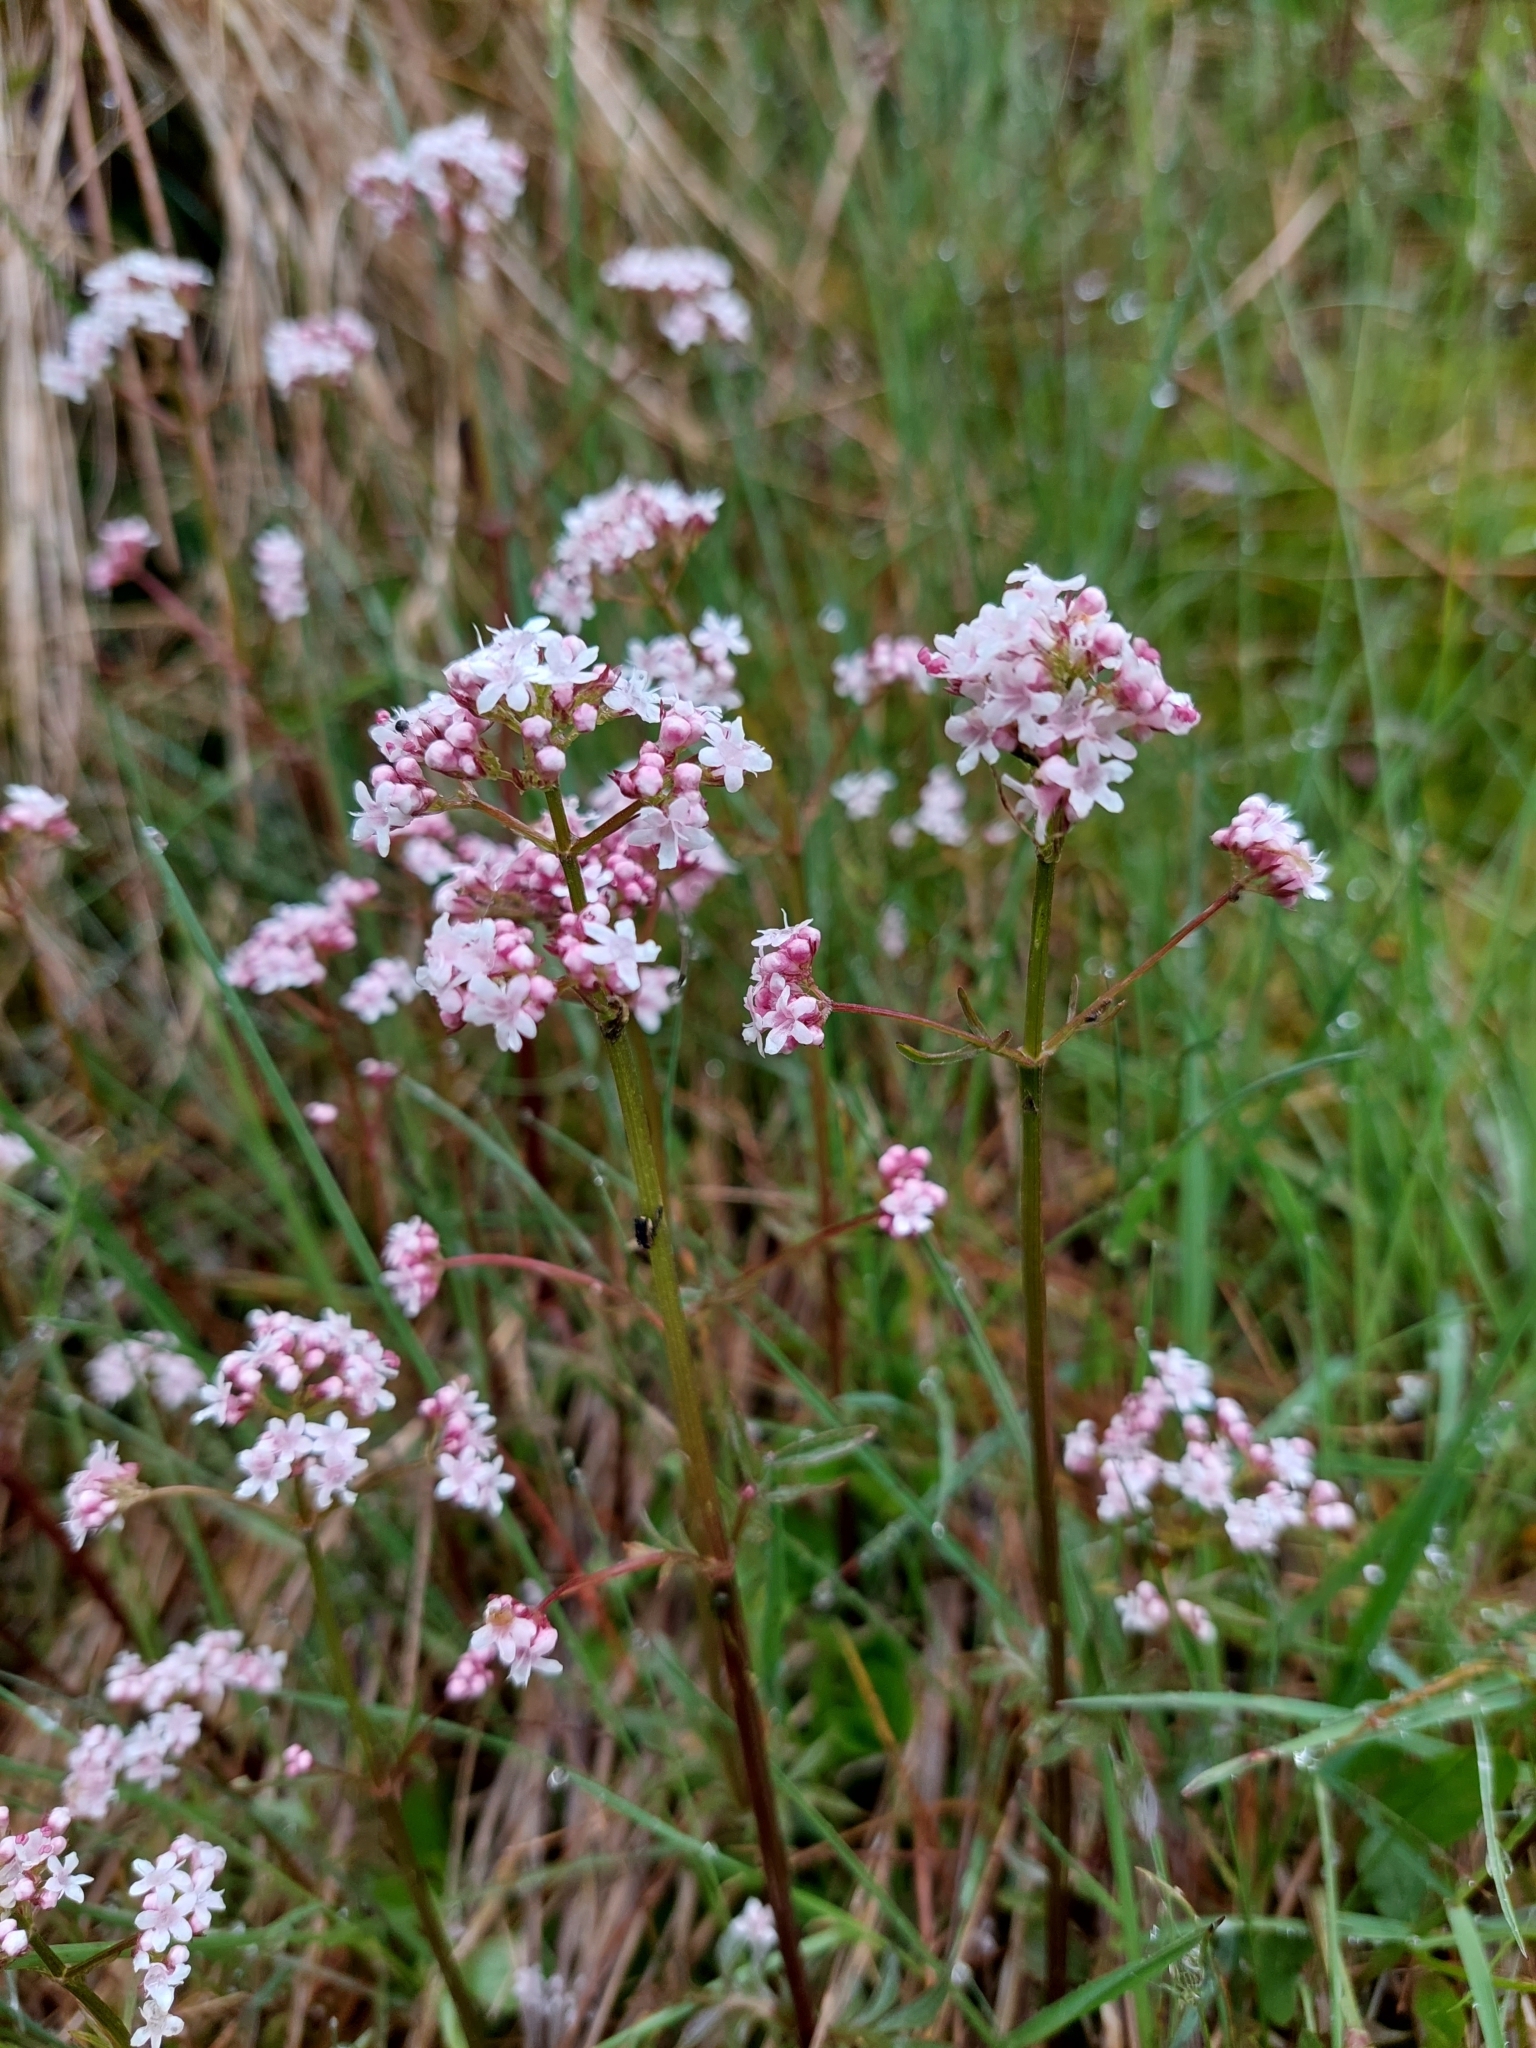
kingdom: Plantae
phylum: Tracheophyta
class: Magnoliopsida
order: Dipsacales
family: Caprifoliaceae
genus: Valeriana
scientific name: Valeriana dioica
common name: Marsh valerian
